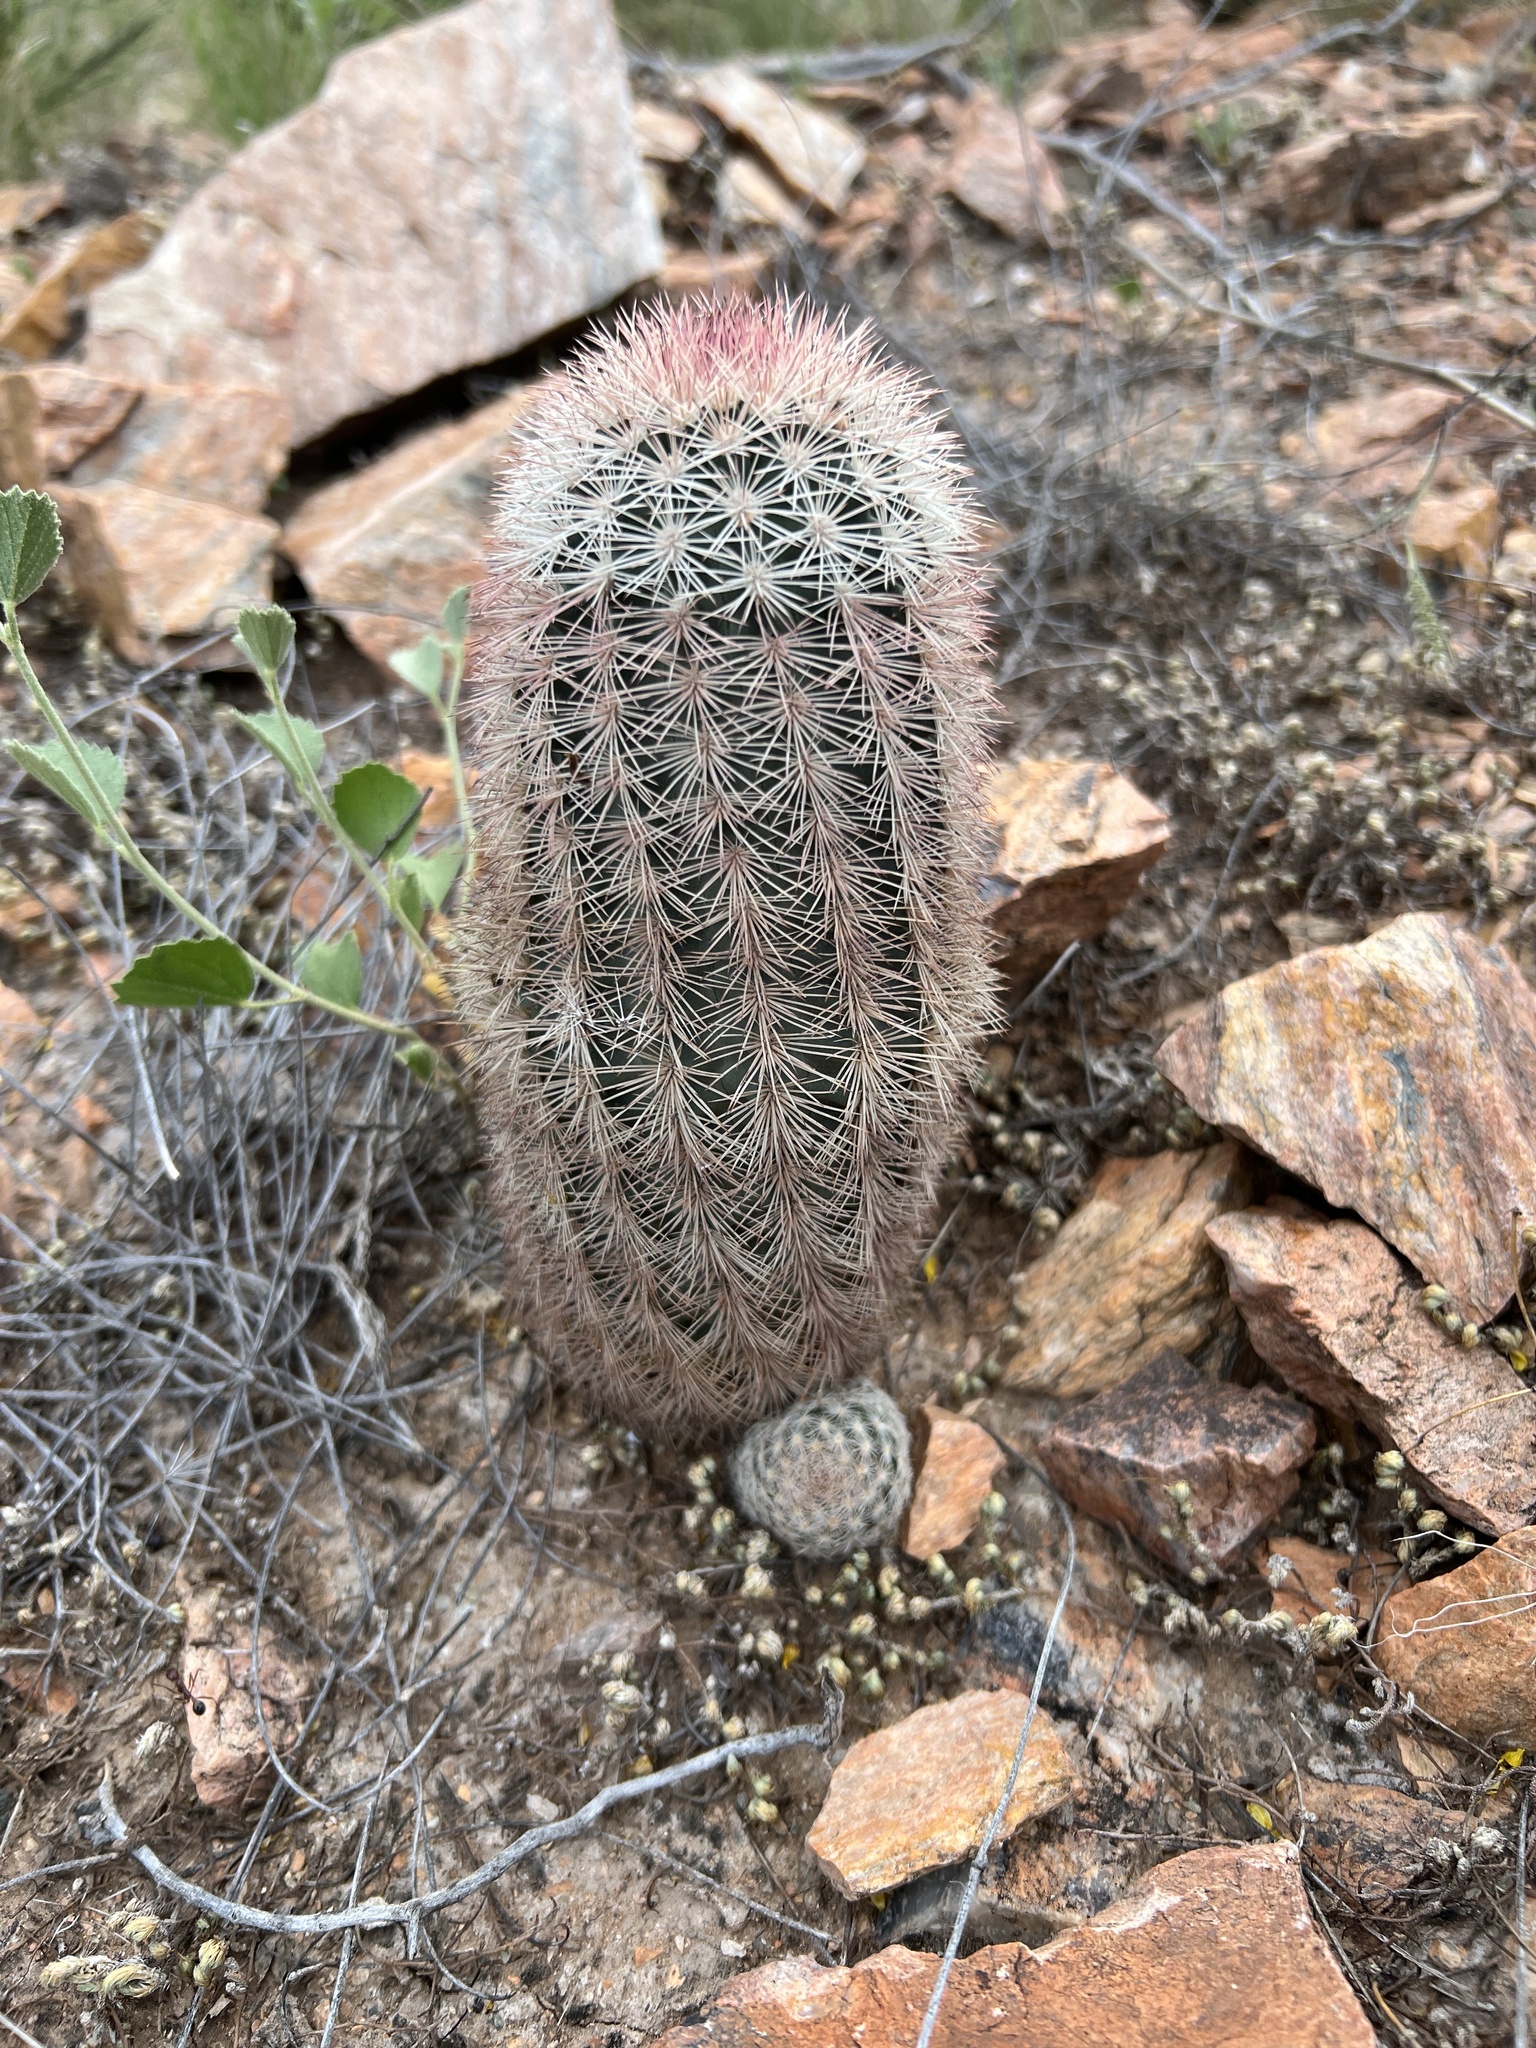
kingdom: Plantae
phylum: Tracheophyta
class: Magnoliopsida
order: Caryophyllales
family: Cactaceae
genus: Echinocereus
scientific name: Echinocereus dasyacanthus
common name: Spiny hedgehog cactus
